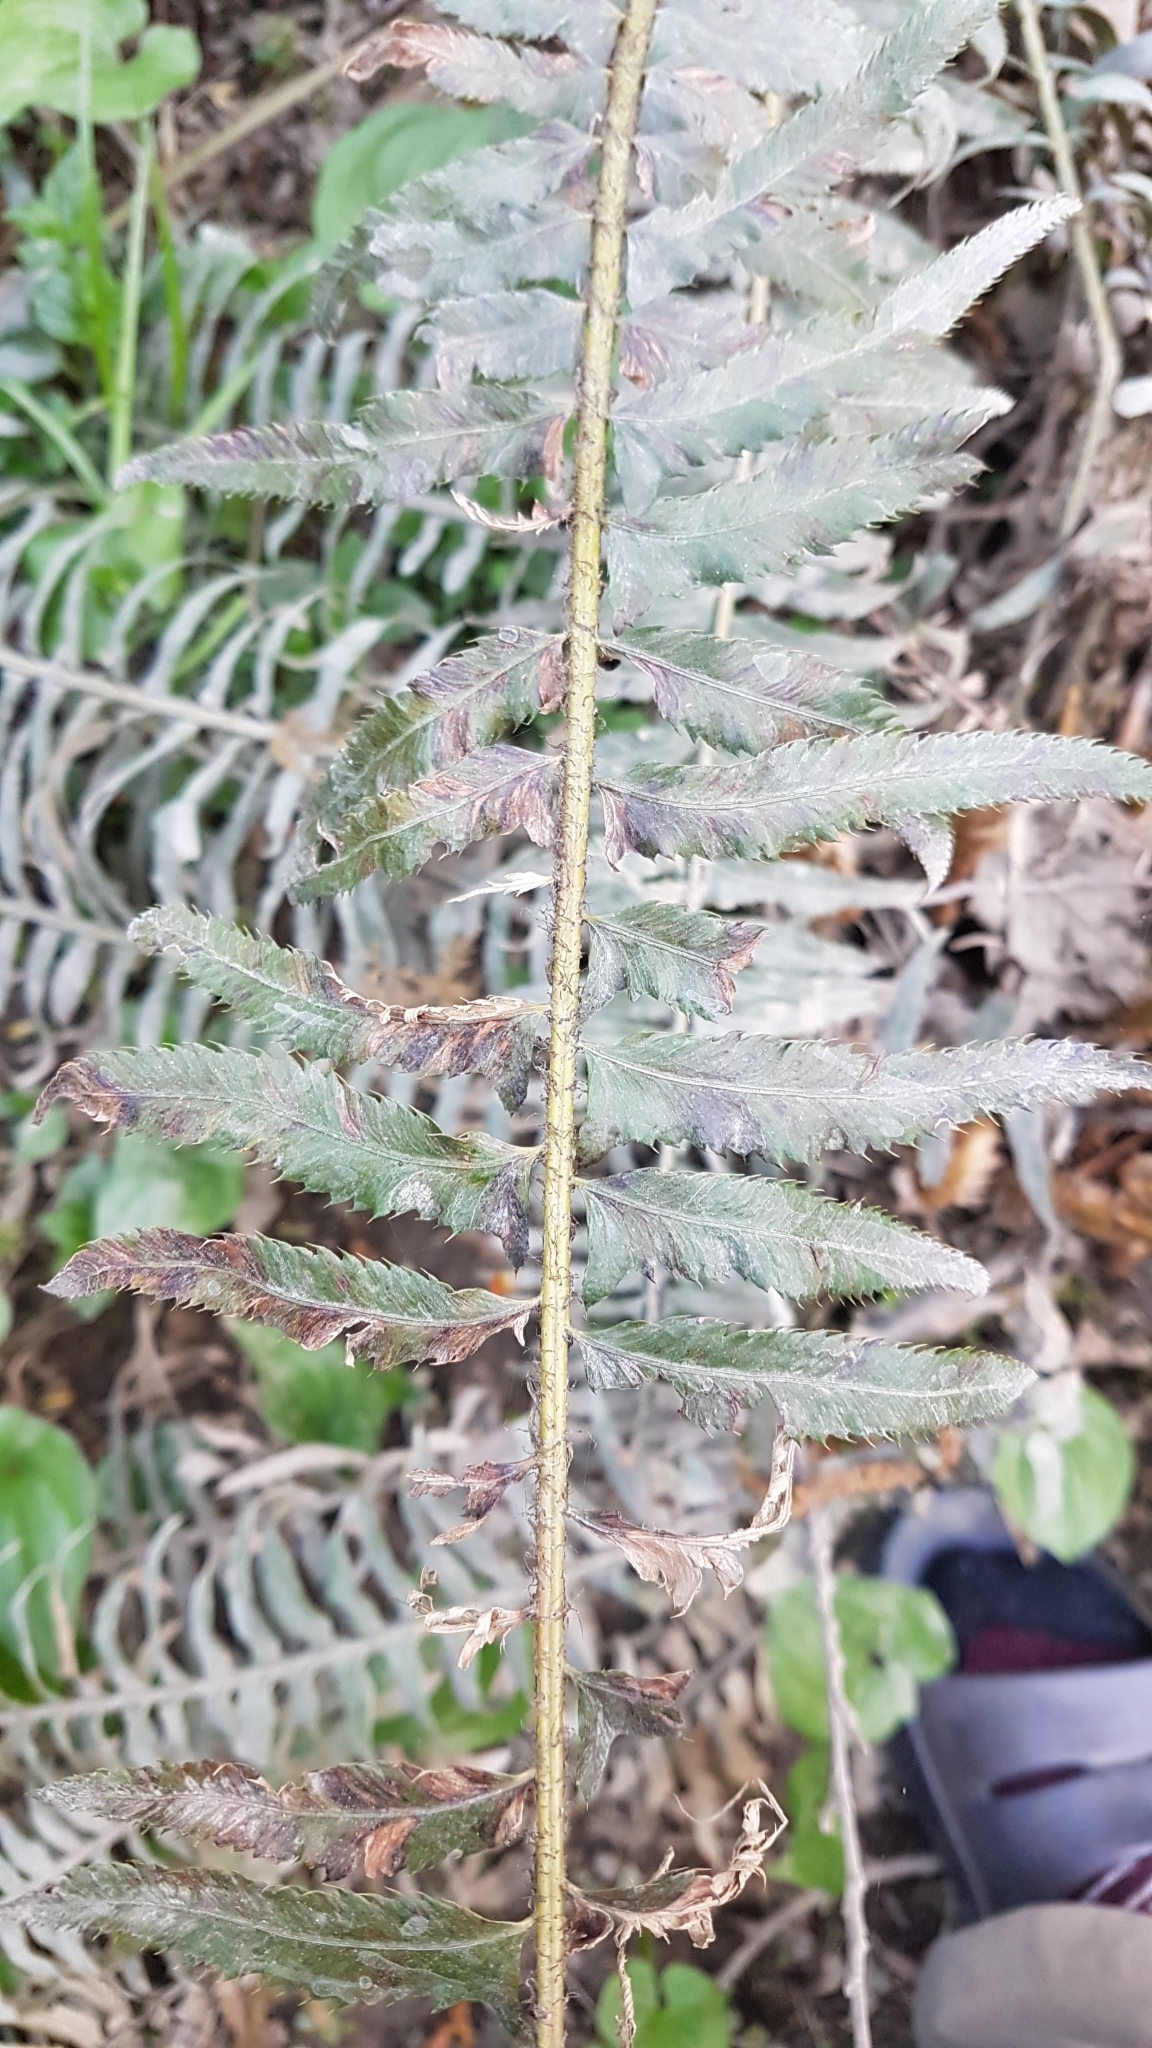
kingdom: Plantae
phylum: Tracheophyta
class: Polypodiopsida
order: Polypodiales
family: Dryopteridaceae
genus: Polystichum
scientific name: Polystichum munitum
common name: Western sword-fern
